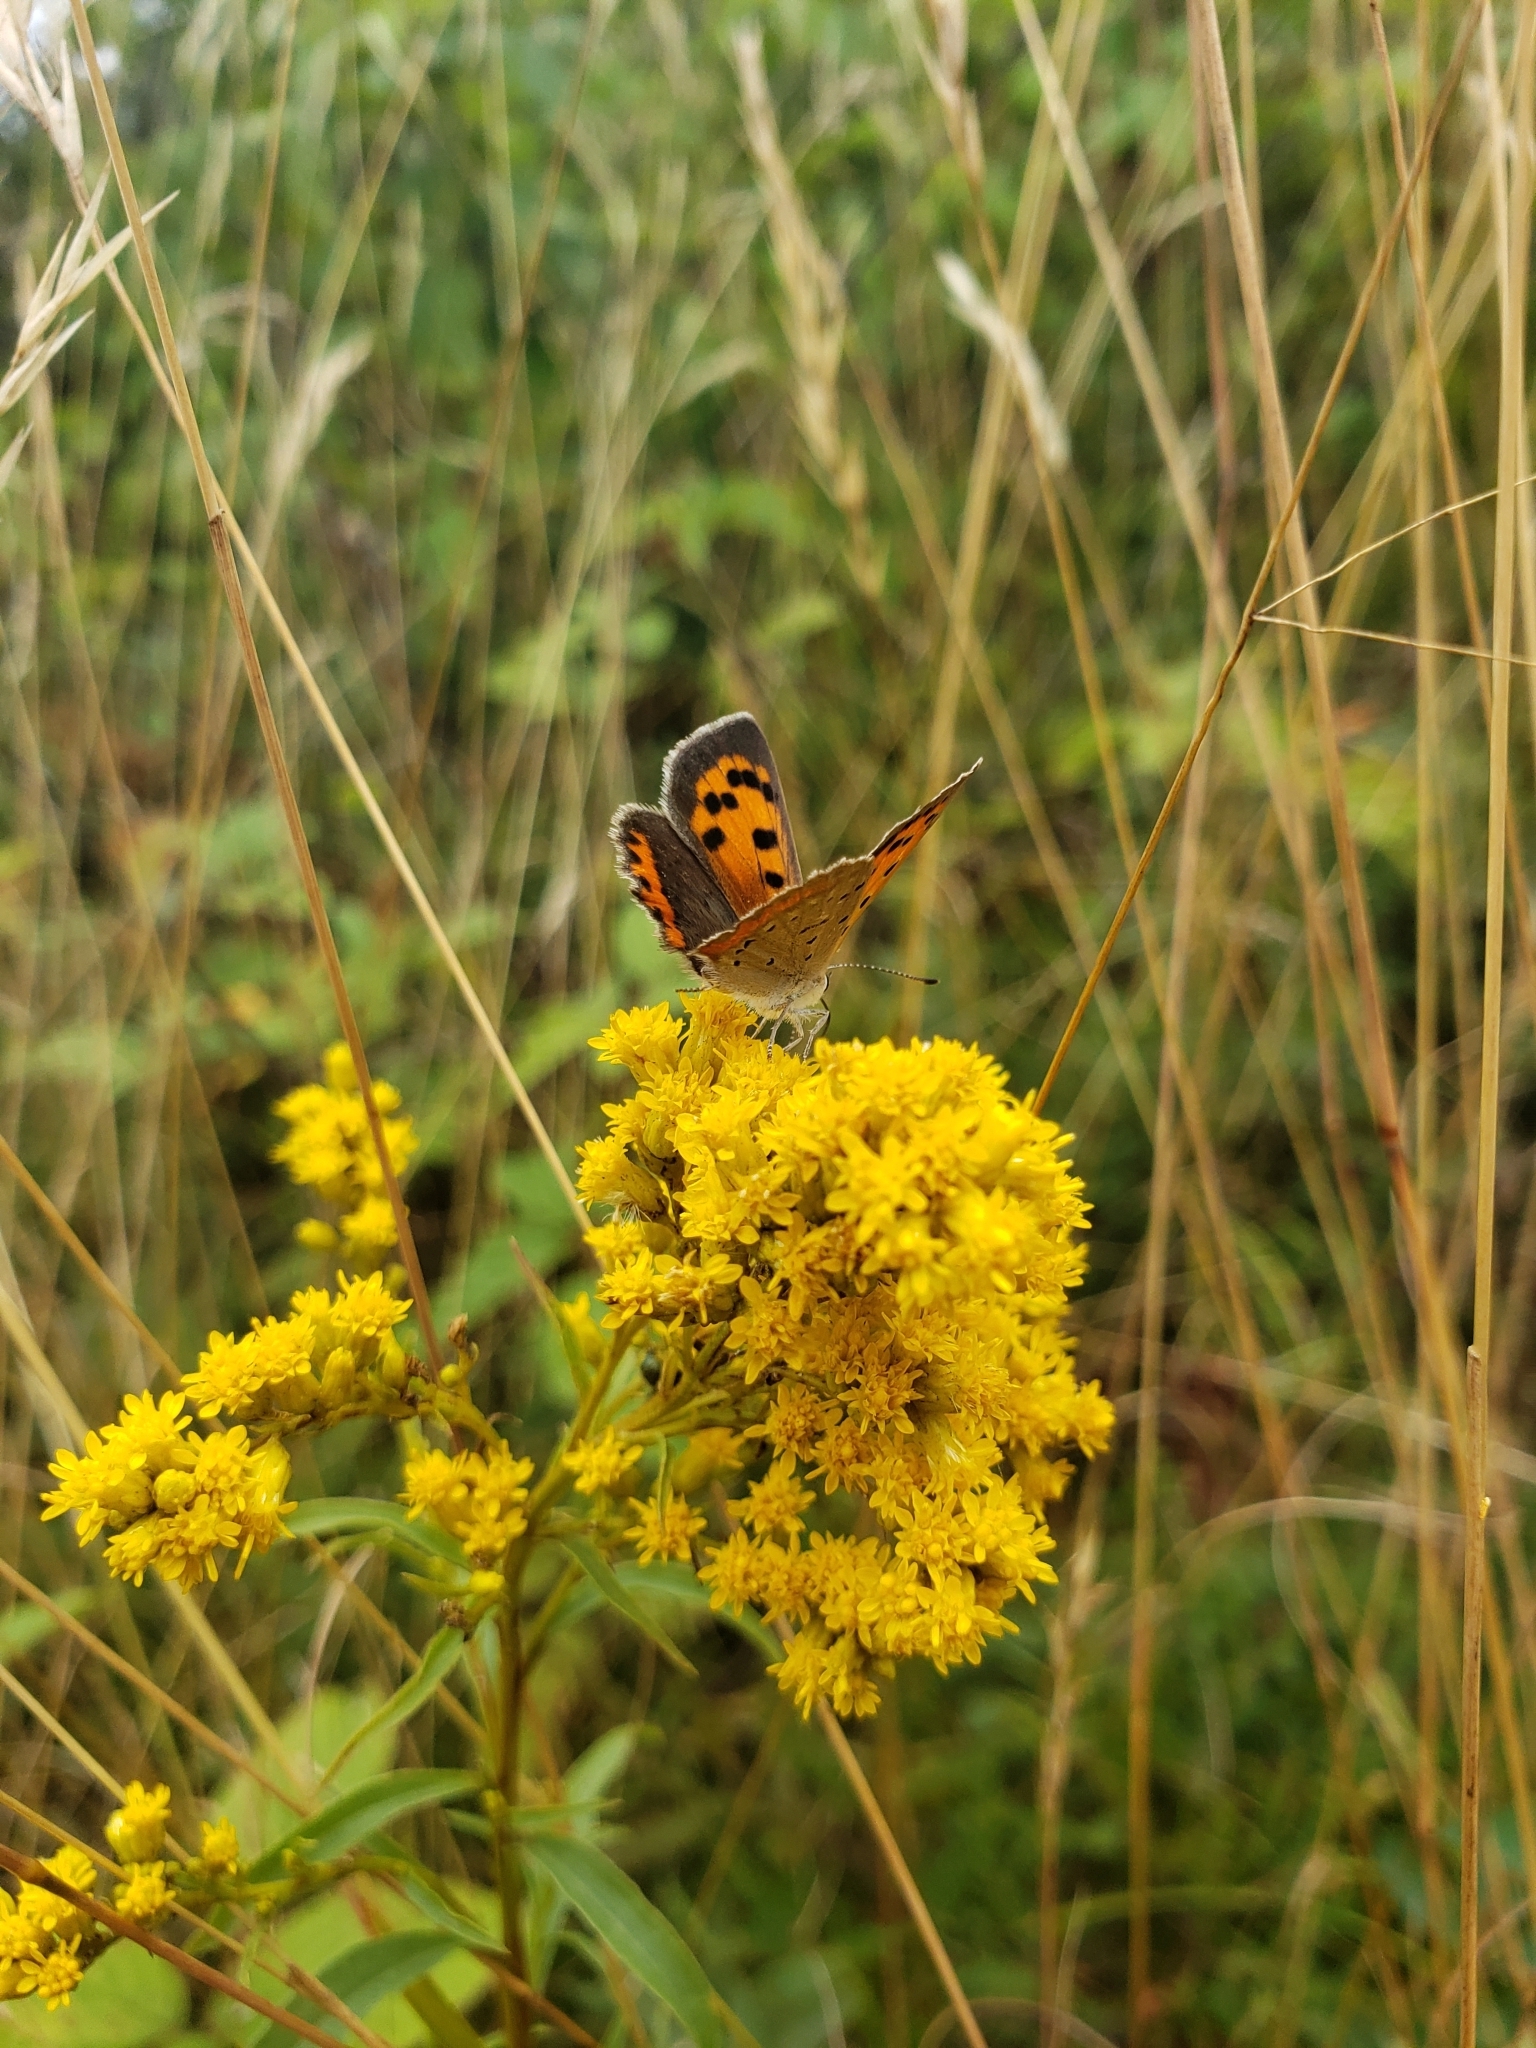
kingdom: Animalia
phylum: Arthropoda
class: Insecta
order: Lepidoptera
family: Lycaenidae
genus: Lycaena
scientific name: Lycaena hypophlaeas
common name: American copper
